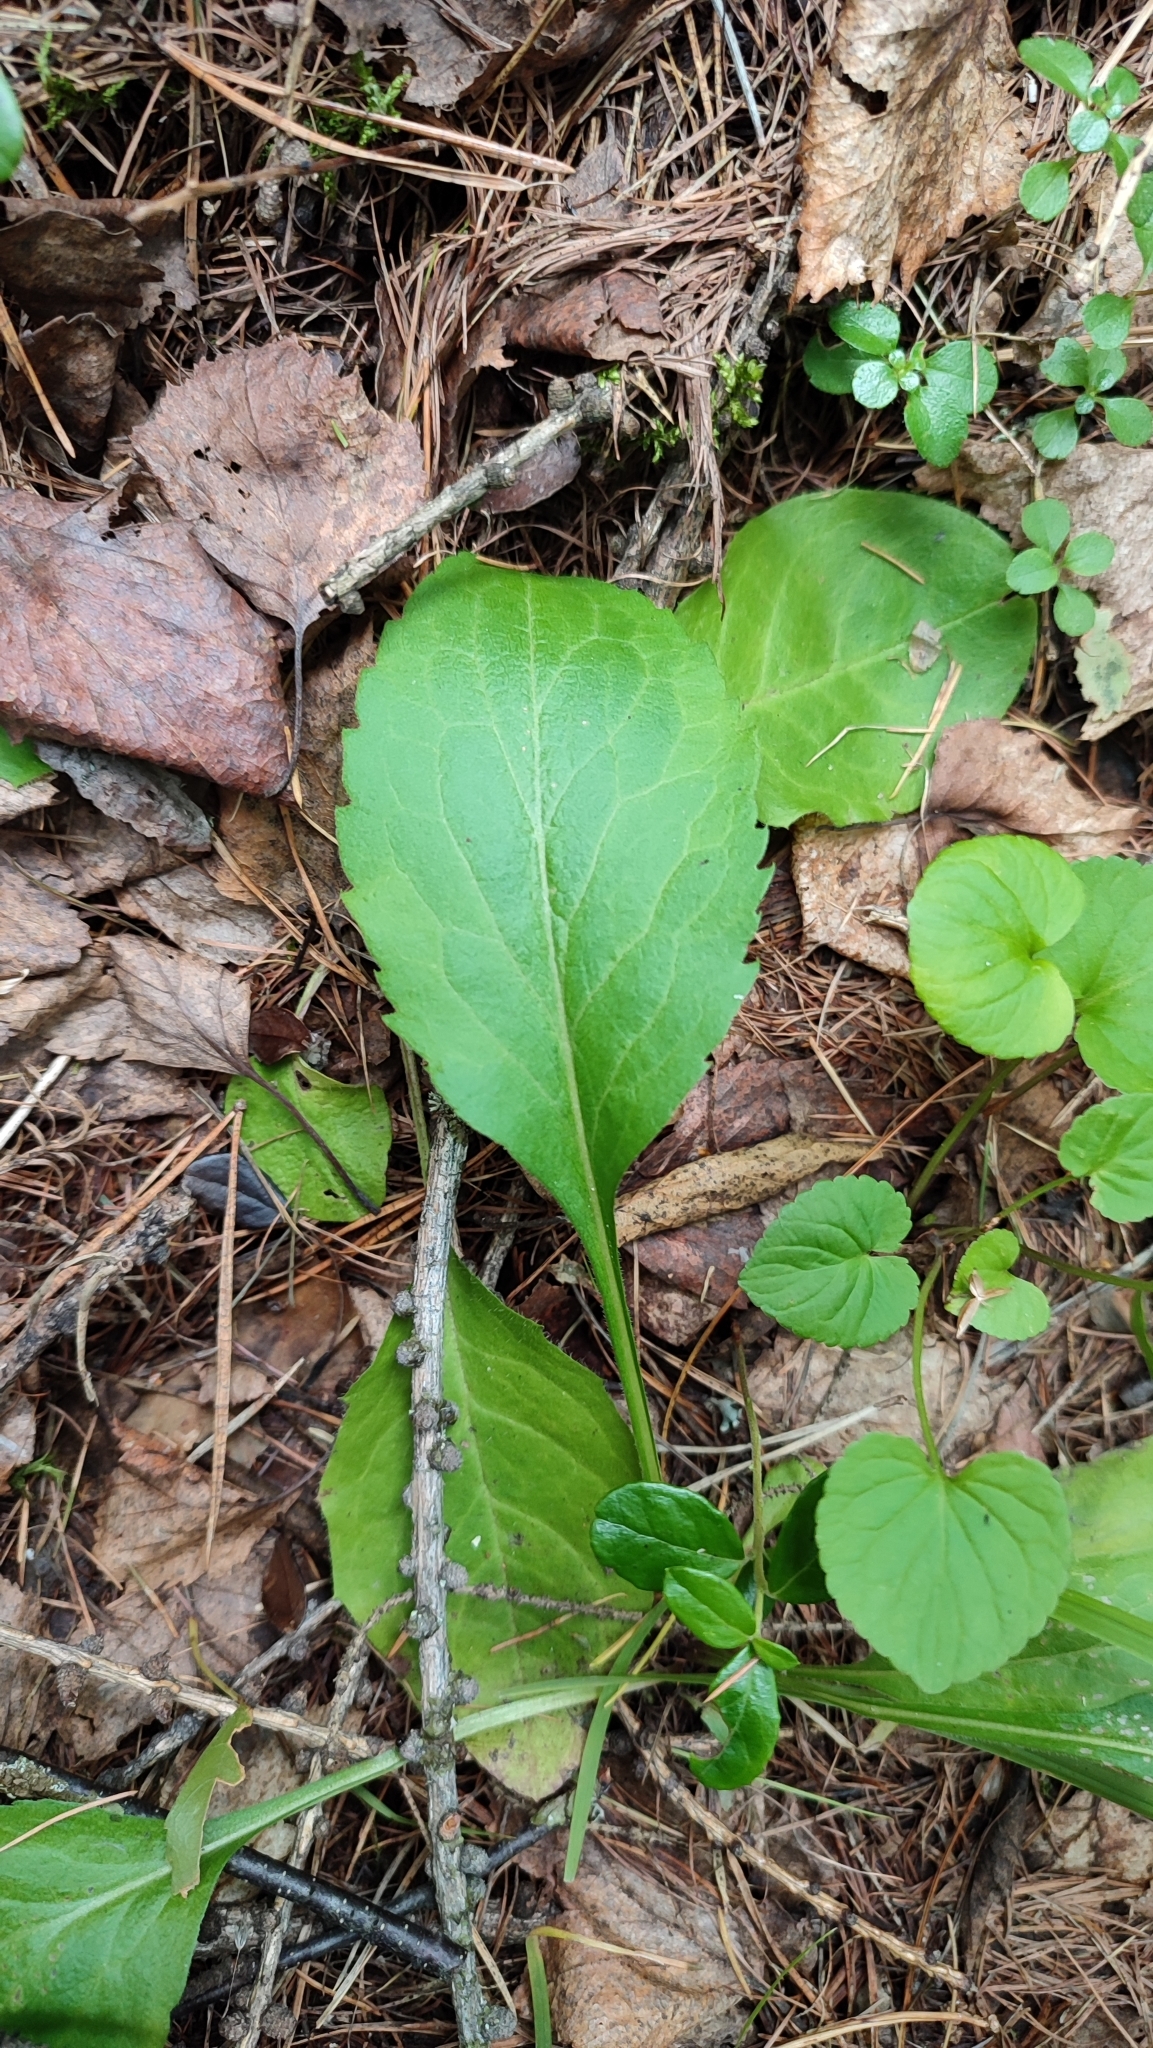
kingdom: Plantae
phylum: Tracheophyta
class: Magnoliopsida
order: Asterales
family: Asteraceae
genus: Solidago
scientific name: Solidago virgaurea
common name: Goldenrod
